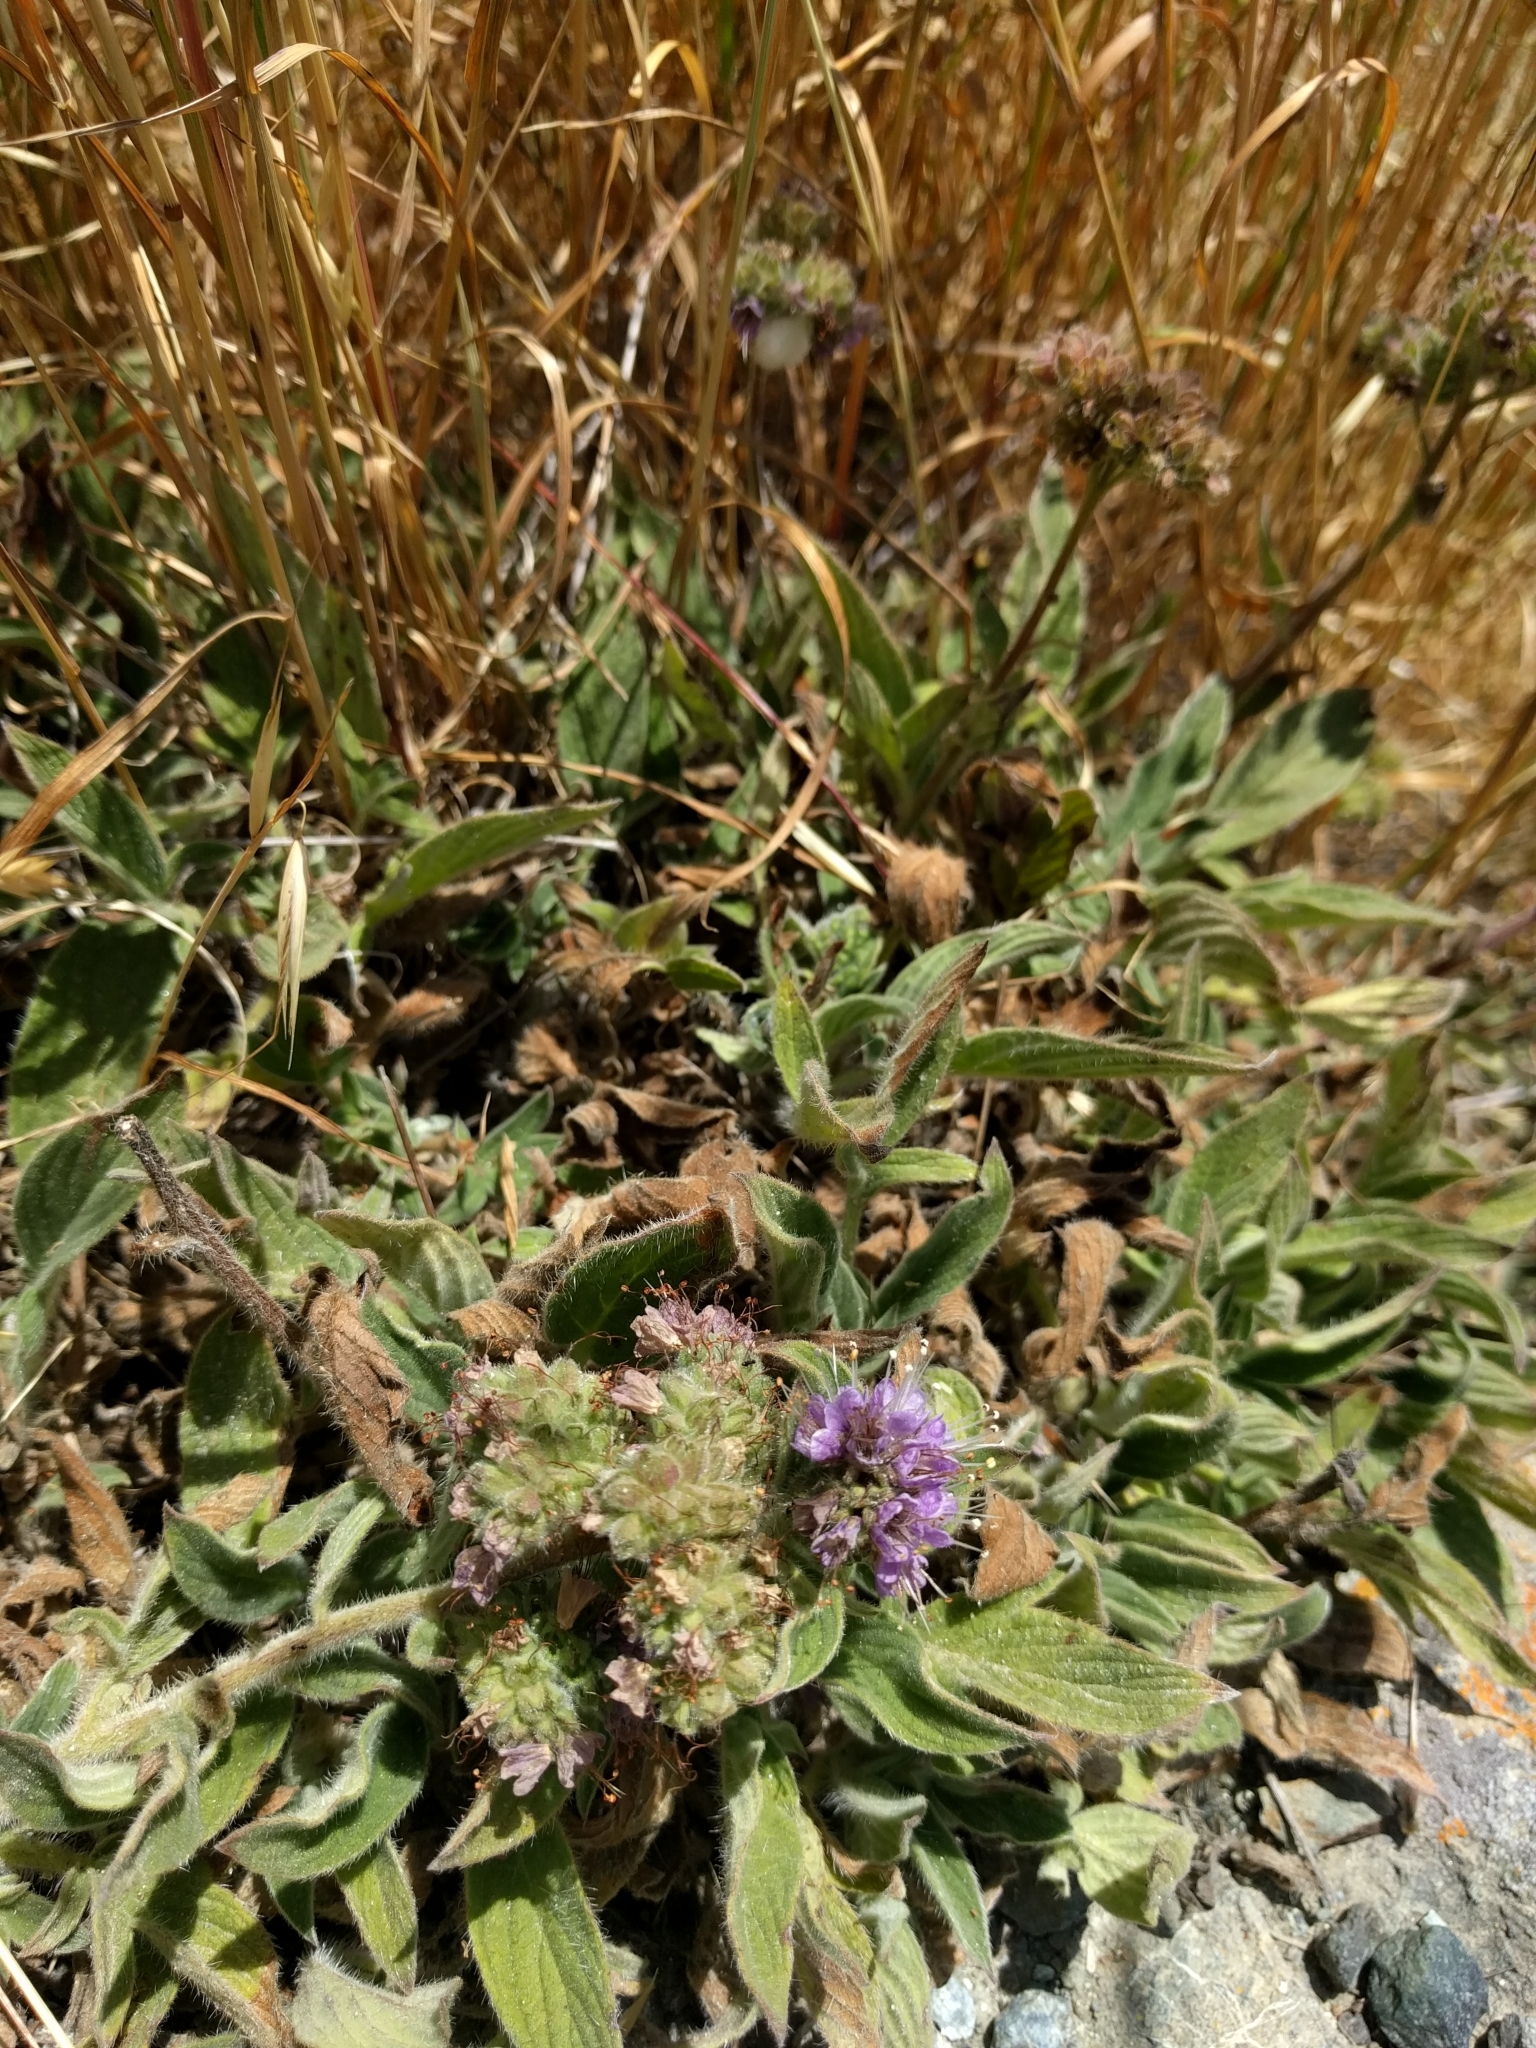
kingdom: Plantae
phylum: Tracheophyta
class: Magnoliopsida
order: Boraginales
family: Hydrophyllaceae
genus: Phacelia
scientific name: Phacelia californica
